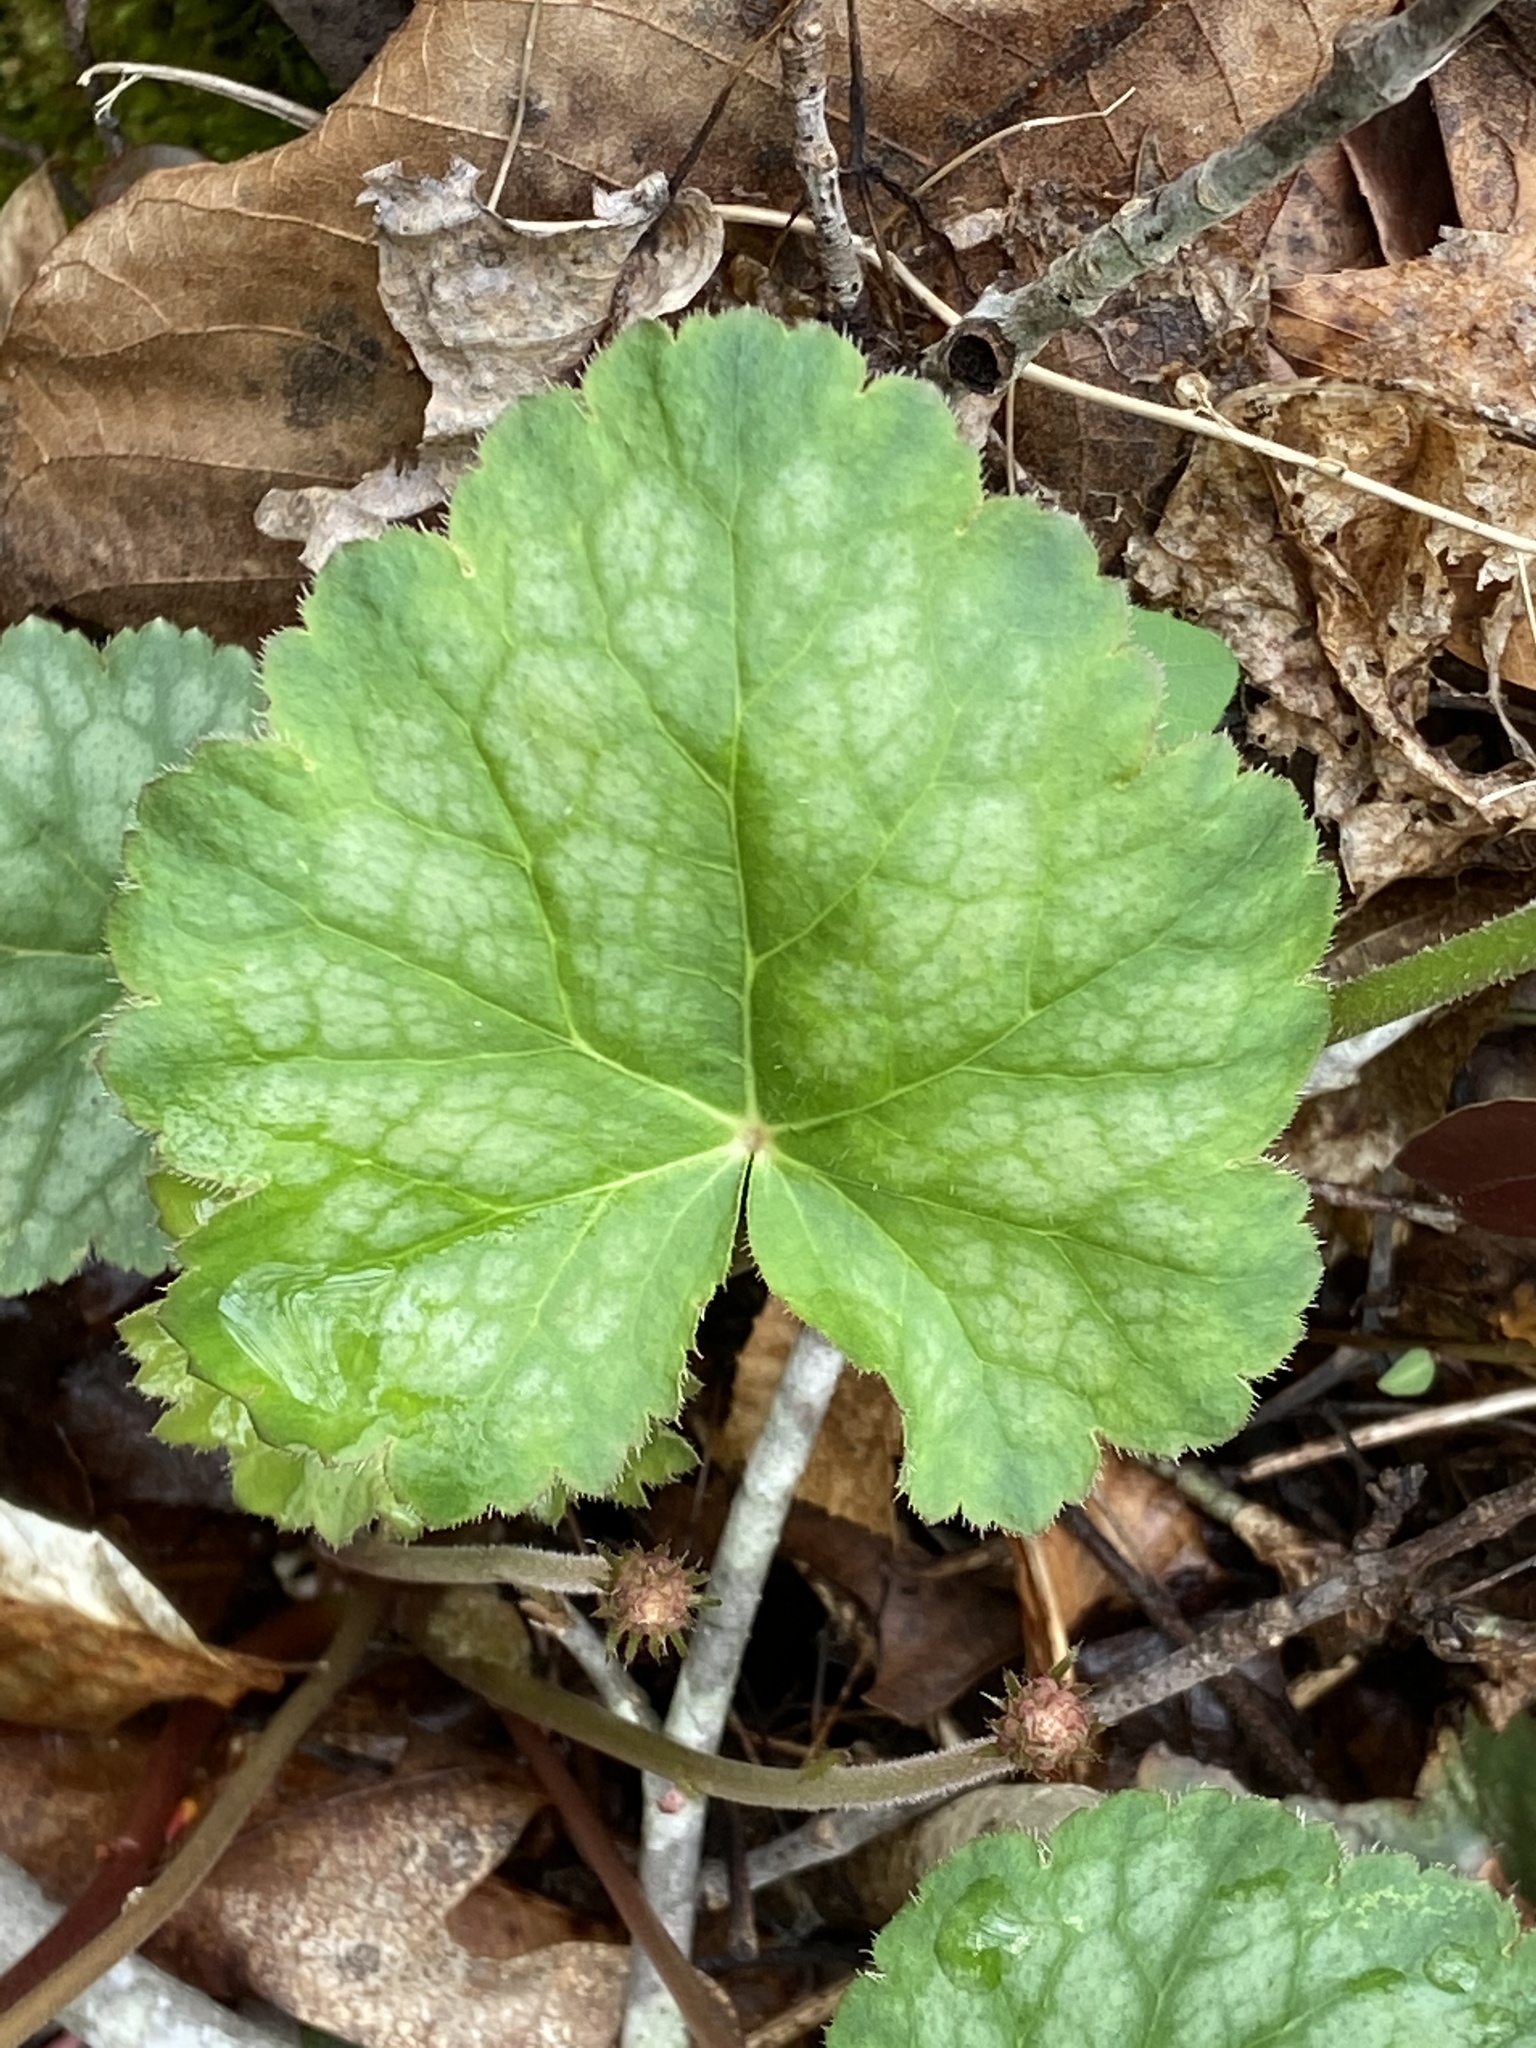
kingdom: Plantae
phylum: Tracheophyta
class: Magnoliopsida
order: Saxifragales
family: Saxifragaceae
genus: Heuchera
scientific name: Heuchera americana
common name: Alumroot
